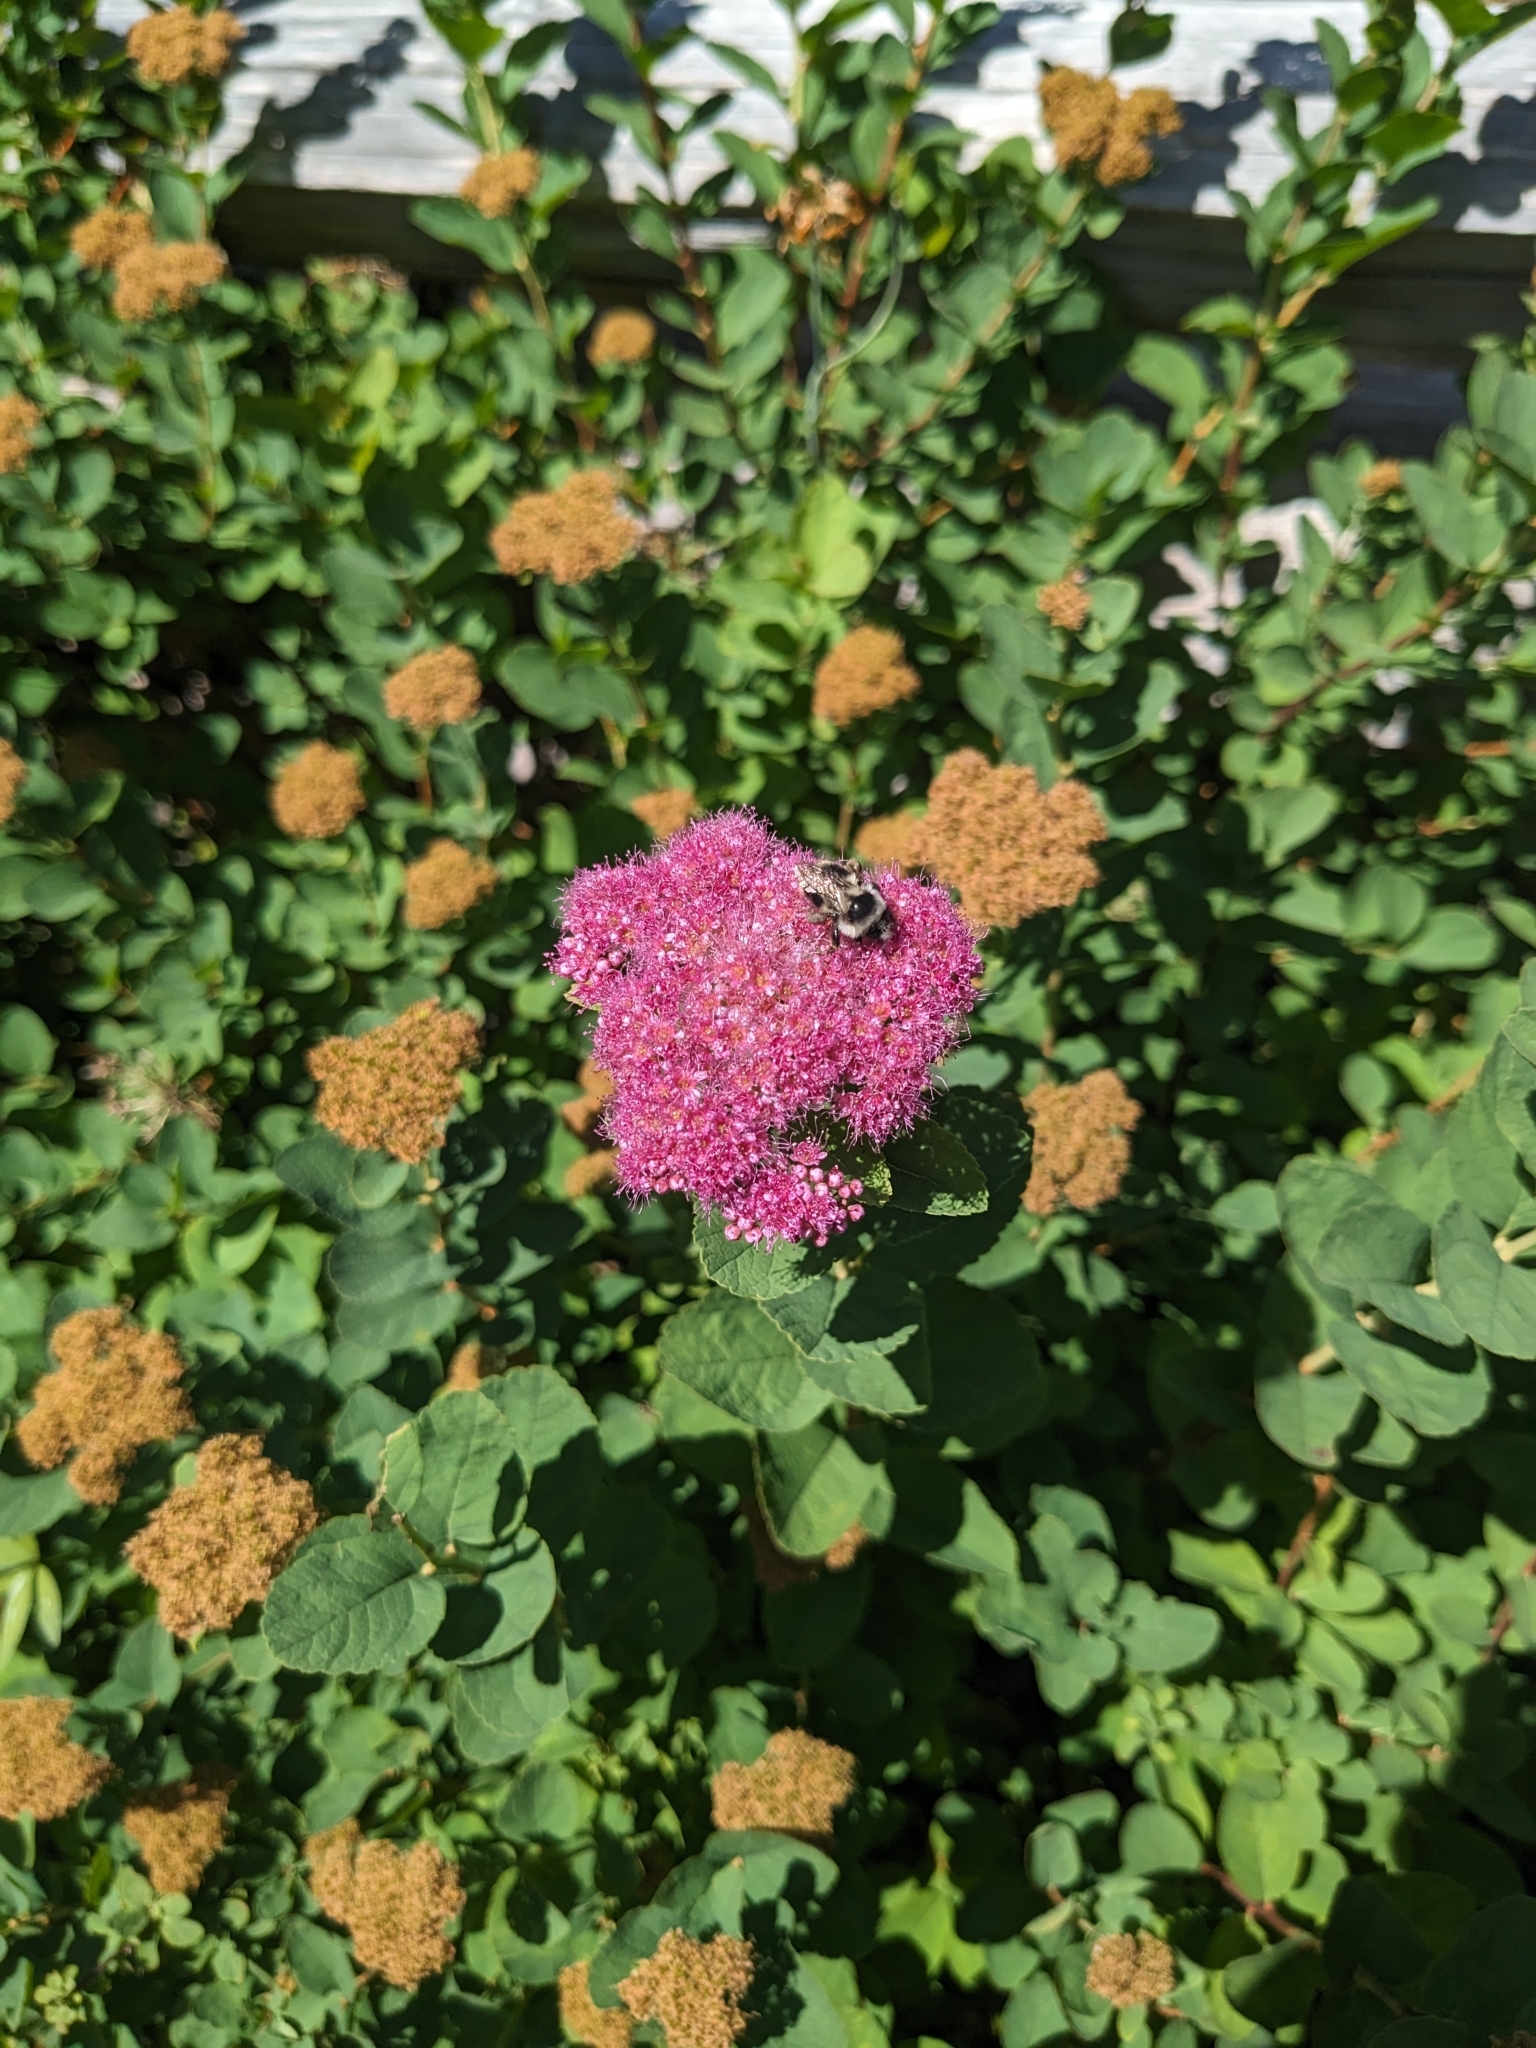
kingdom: Animalia
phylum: Arthropoda
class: Insecta
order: Hymenoptera
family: Apidae
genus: Bombus
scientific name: Bombus vancouverensis
